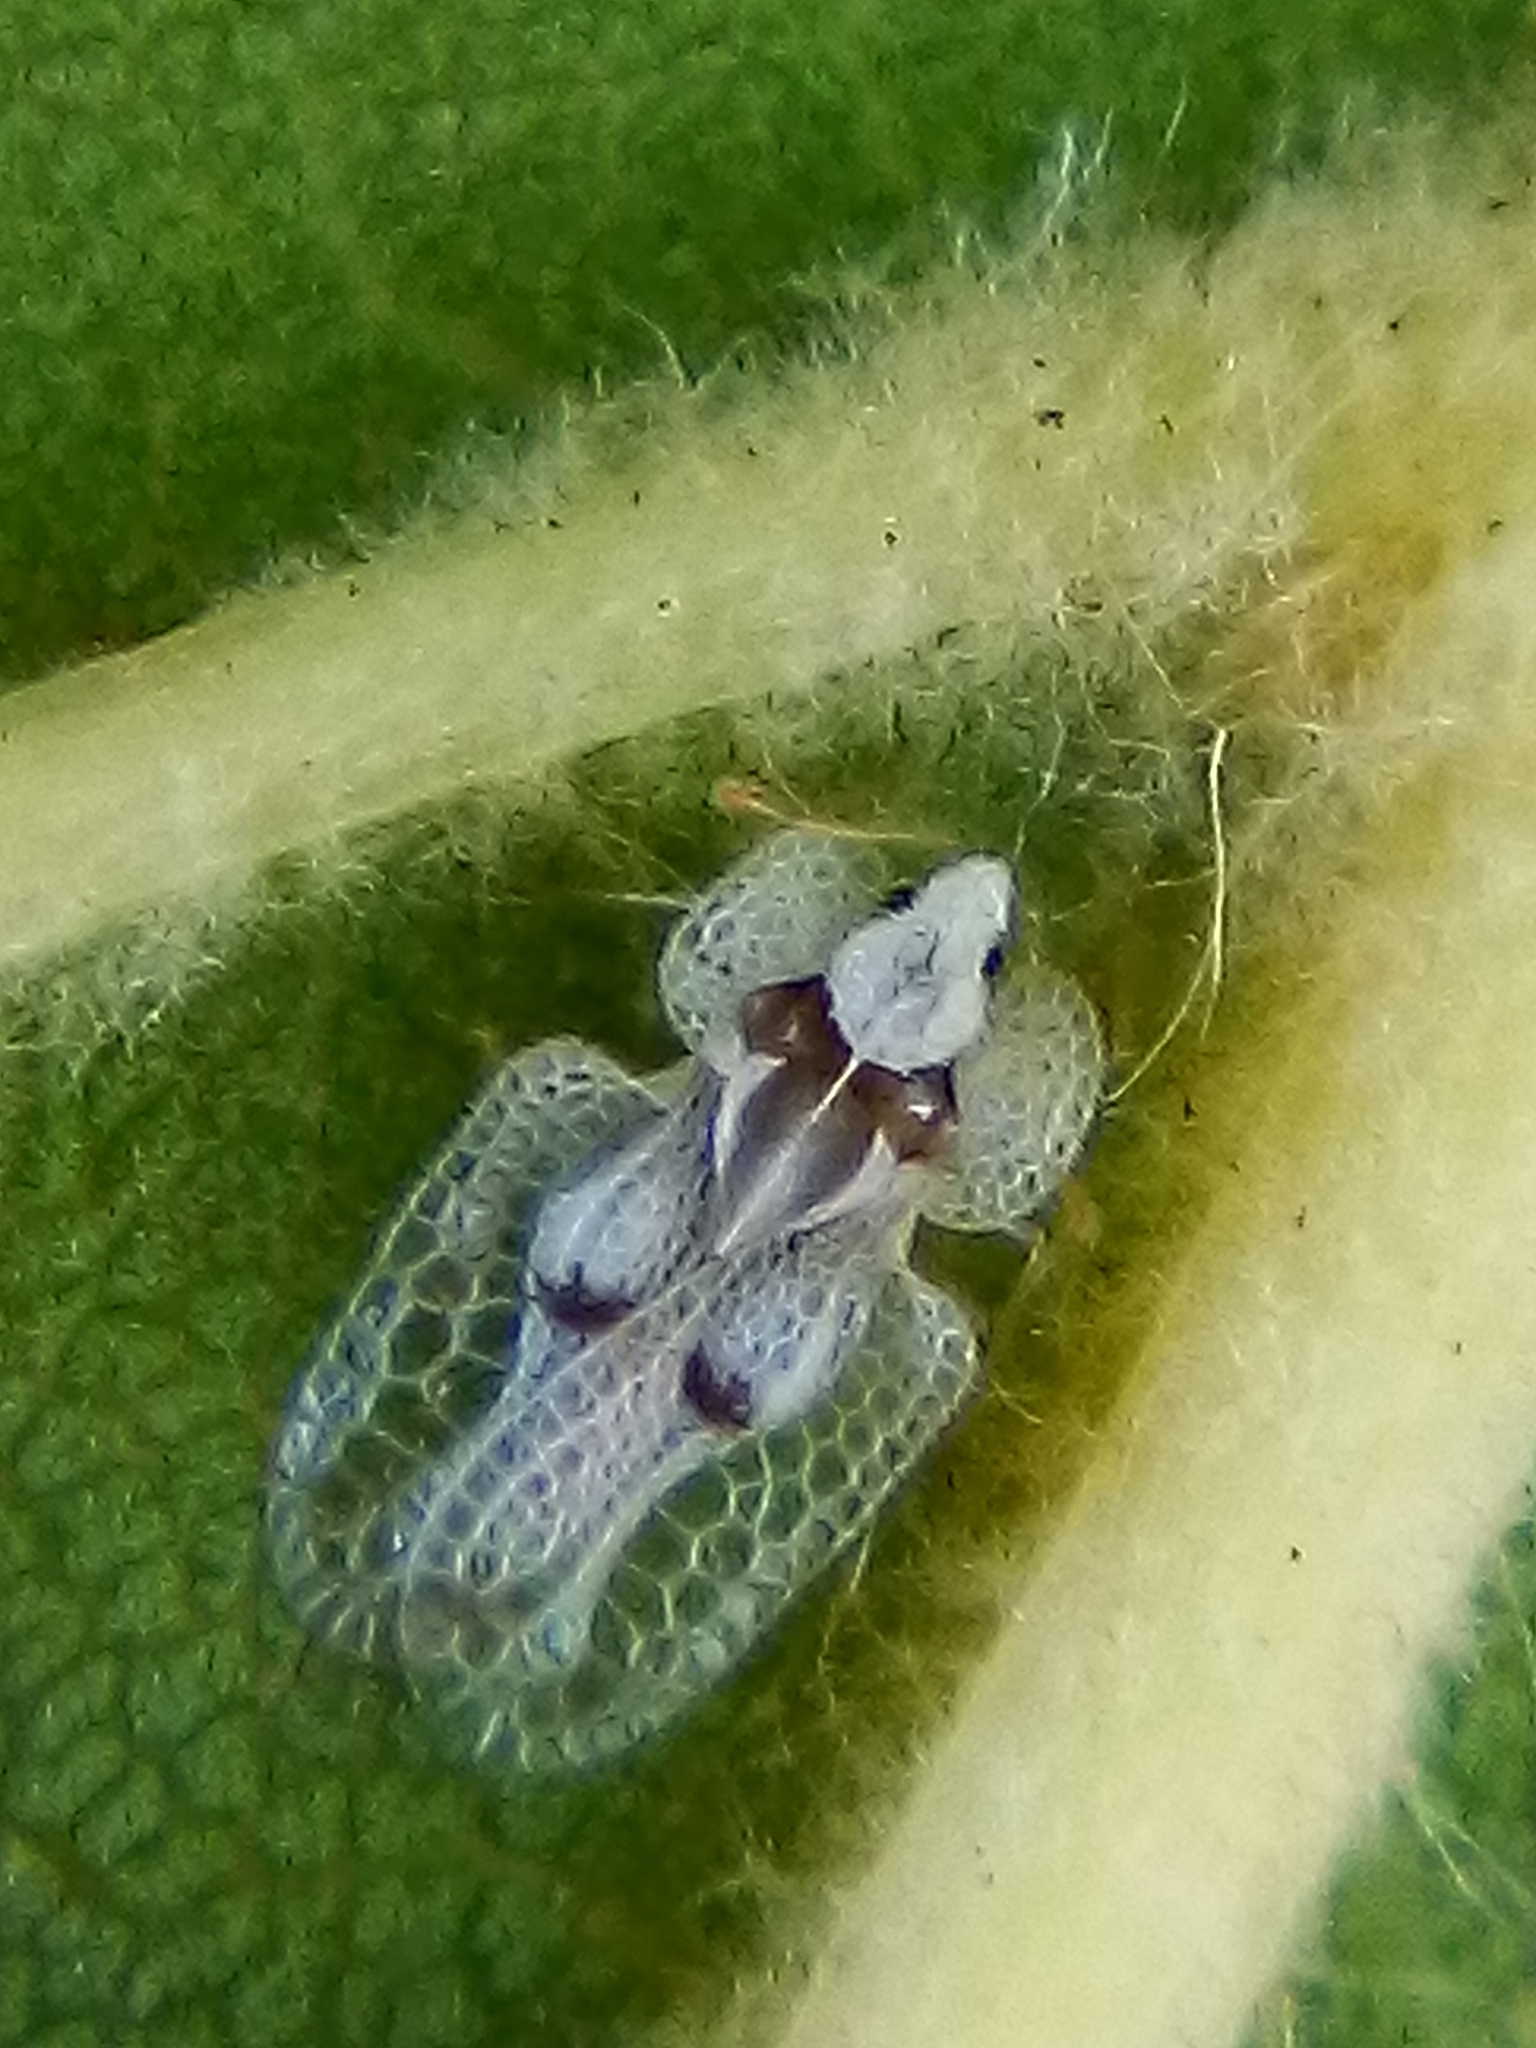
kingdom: Animalia
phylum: Arthropoda
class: Insecta
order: Hemiptera
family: Tingidae
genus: Corythucha
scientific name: Corythucha ciliata
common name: Sycamore lace bug
